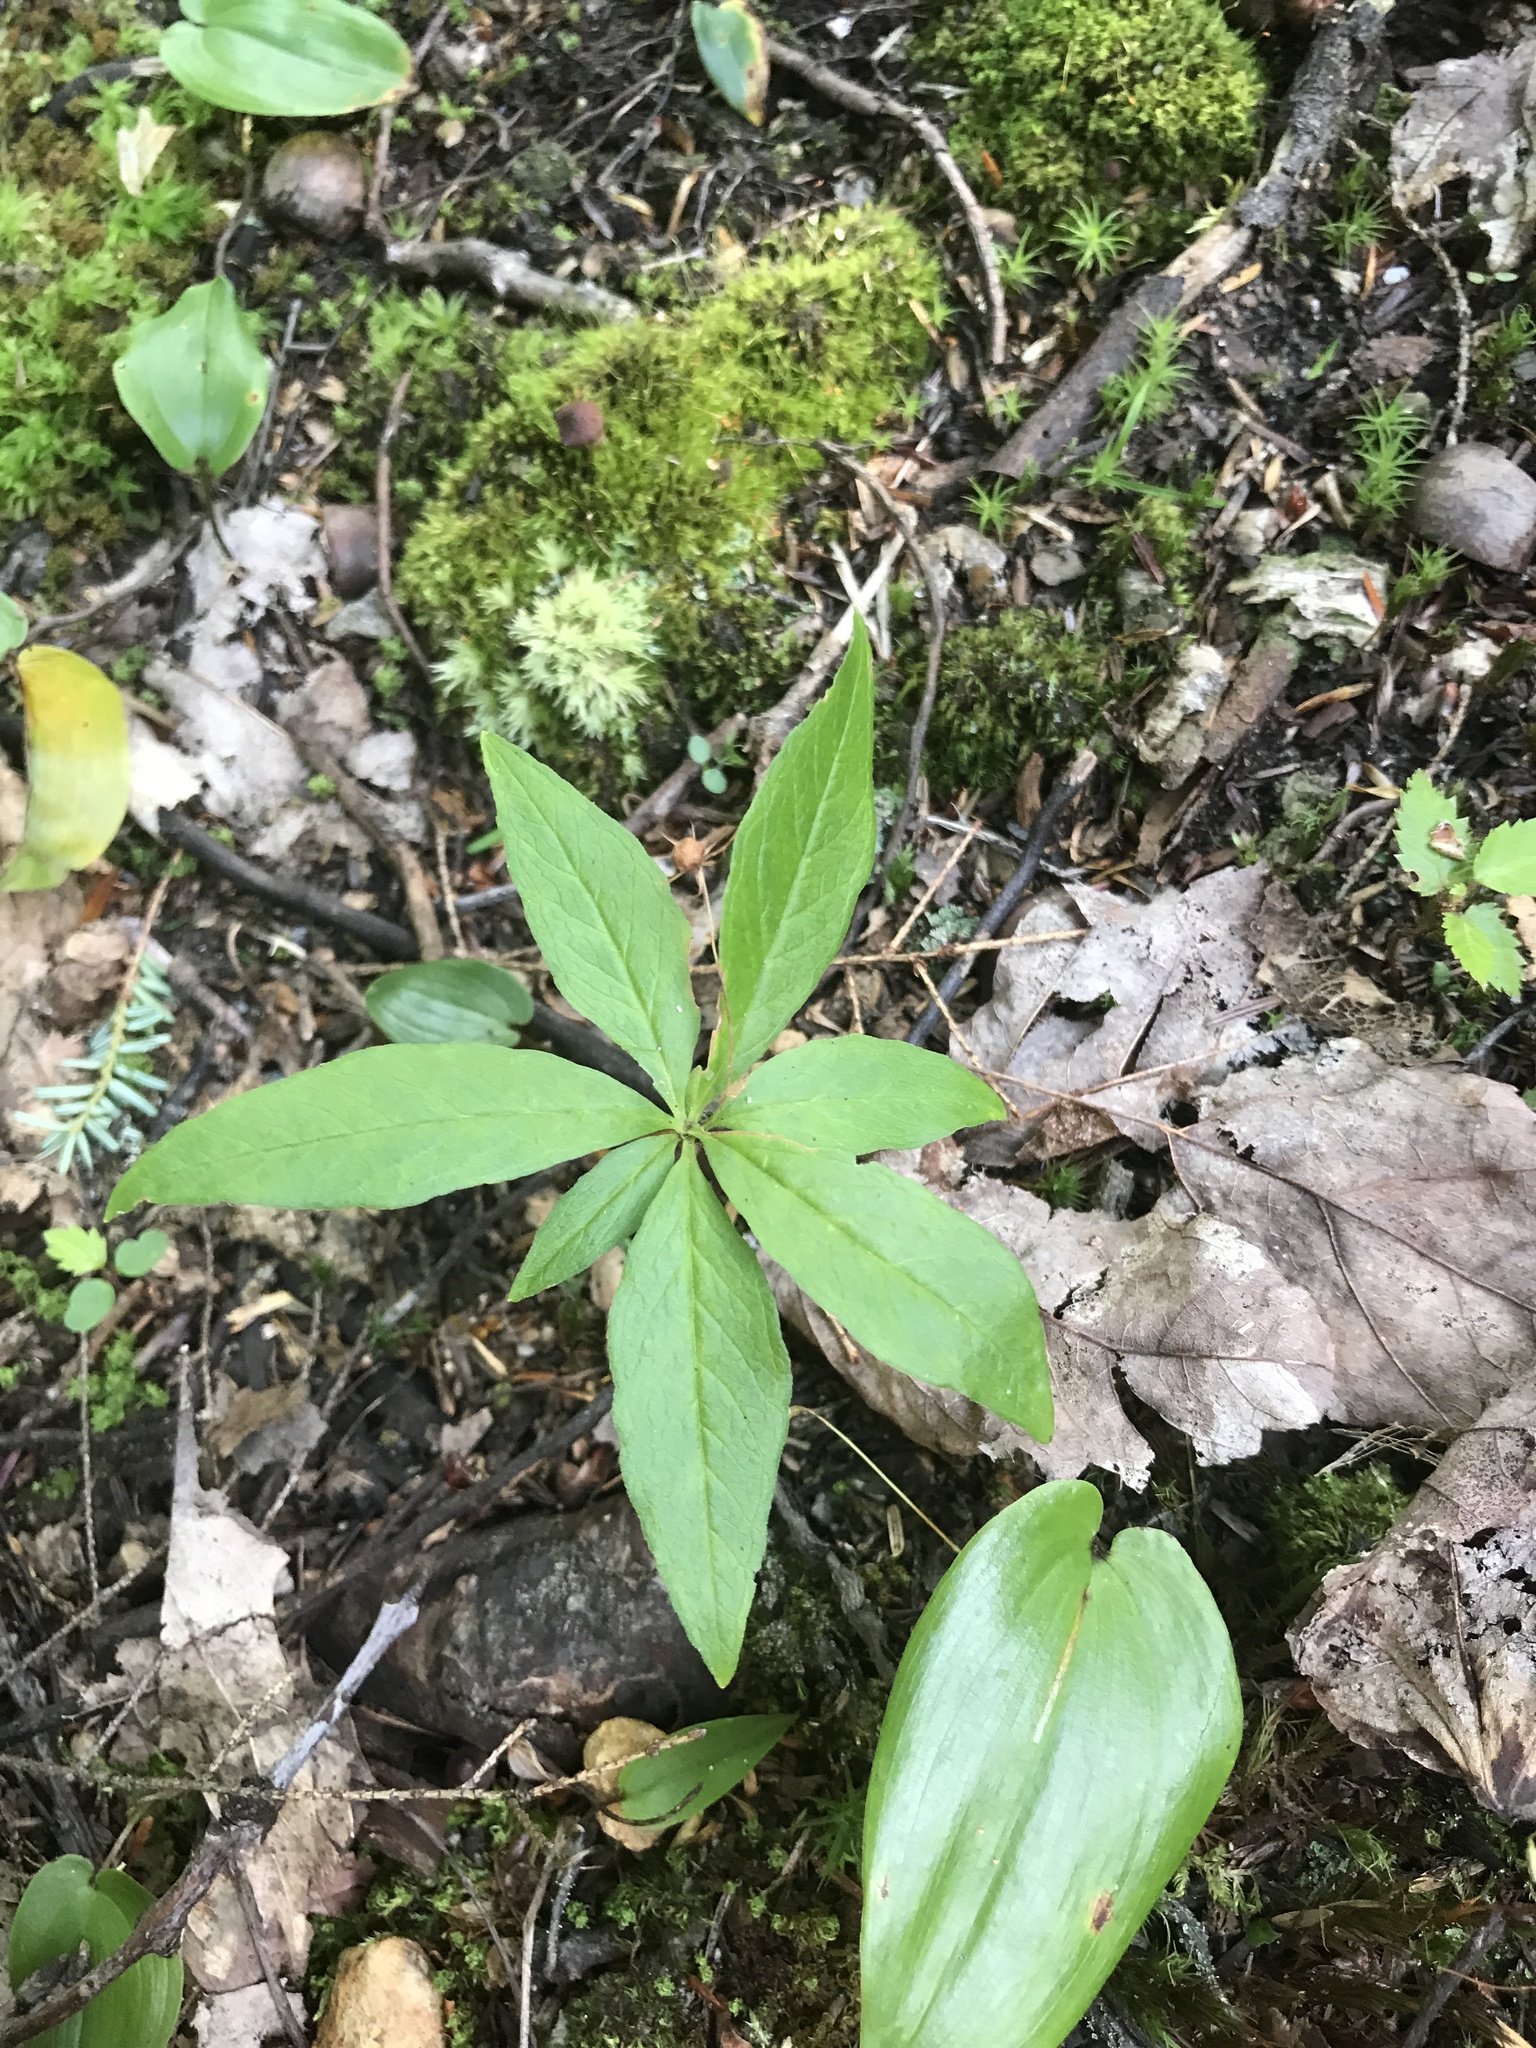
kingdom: Plantae
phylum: Tracheophyta
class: Magnoliopsida
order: Ericales
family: Primulaceae
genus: Lysimachia
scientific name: Lysimachia borealis
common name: American starflower
